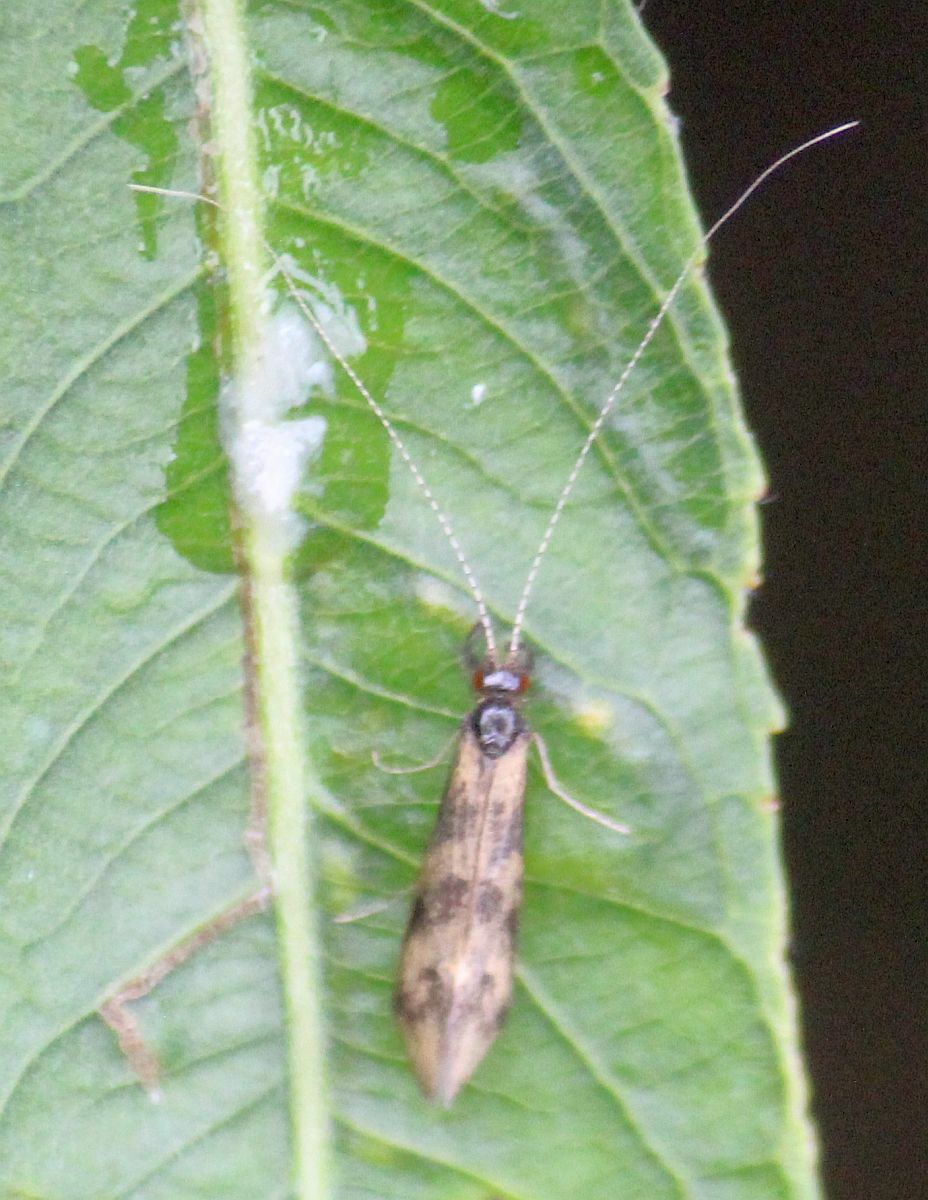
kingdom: Animalia
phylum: Arthropoda
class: Insecta
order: Trichoptera
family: Leptoceridae
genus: Mystacides
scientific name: Mystacides longicornis
